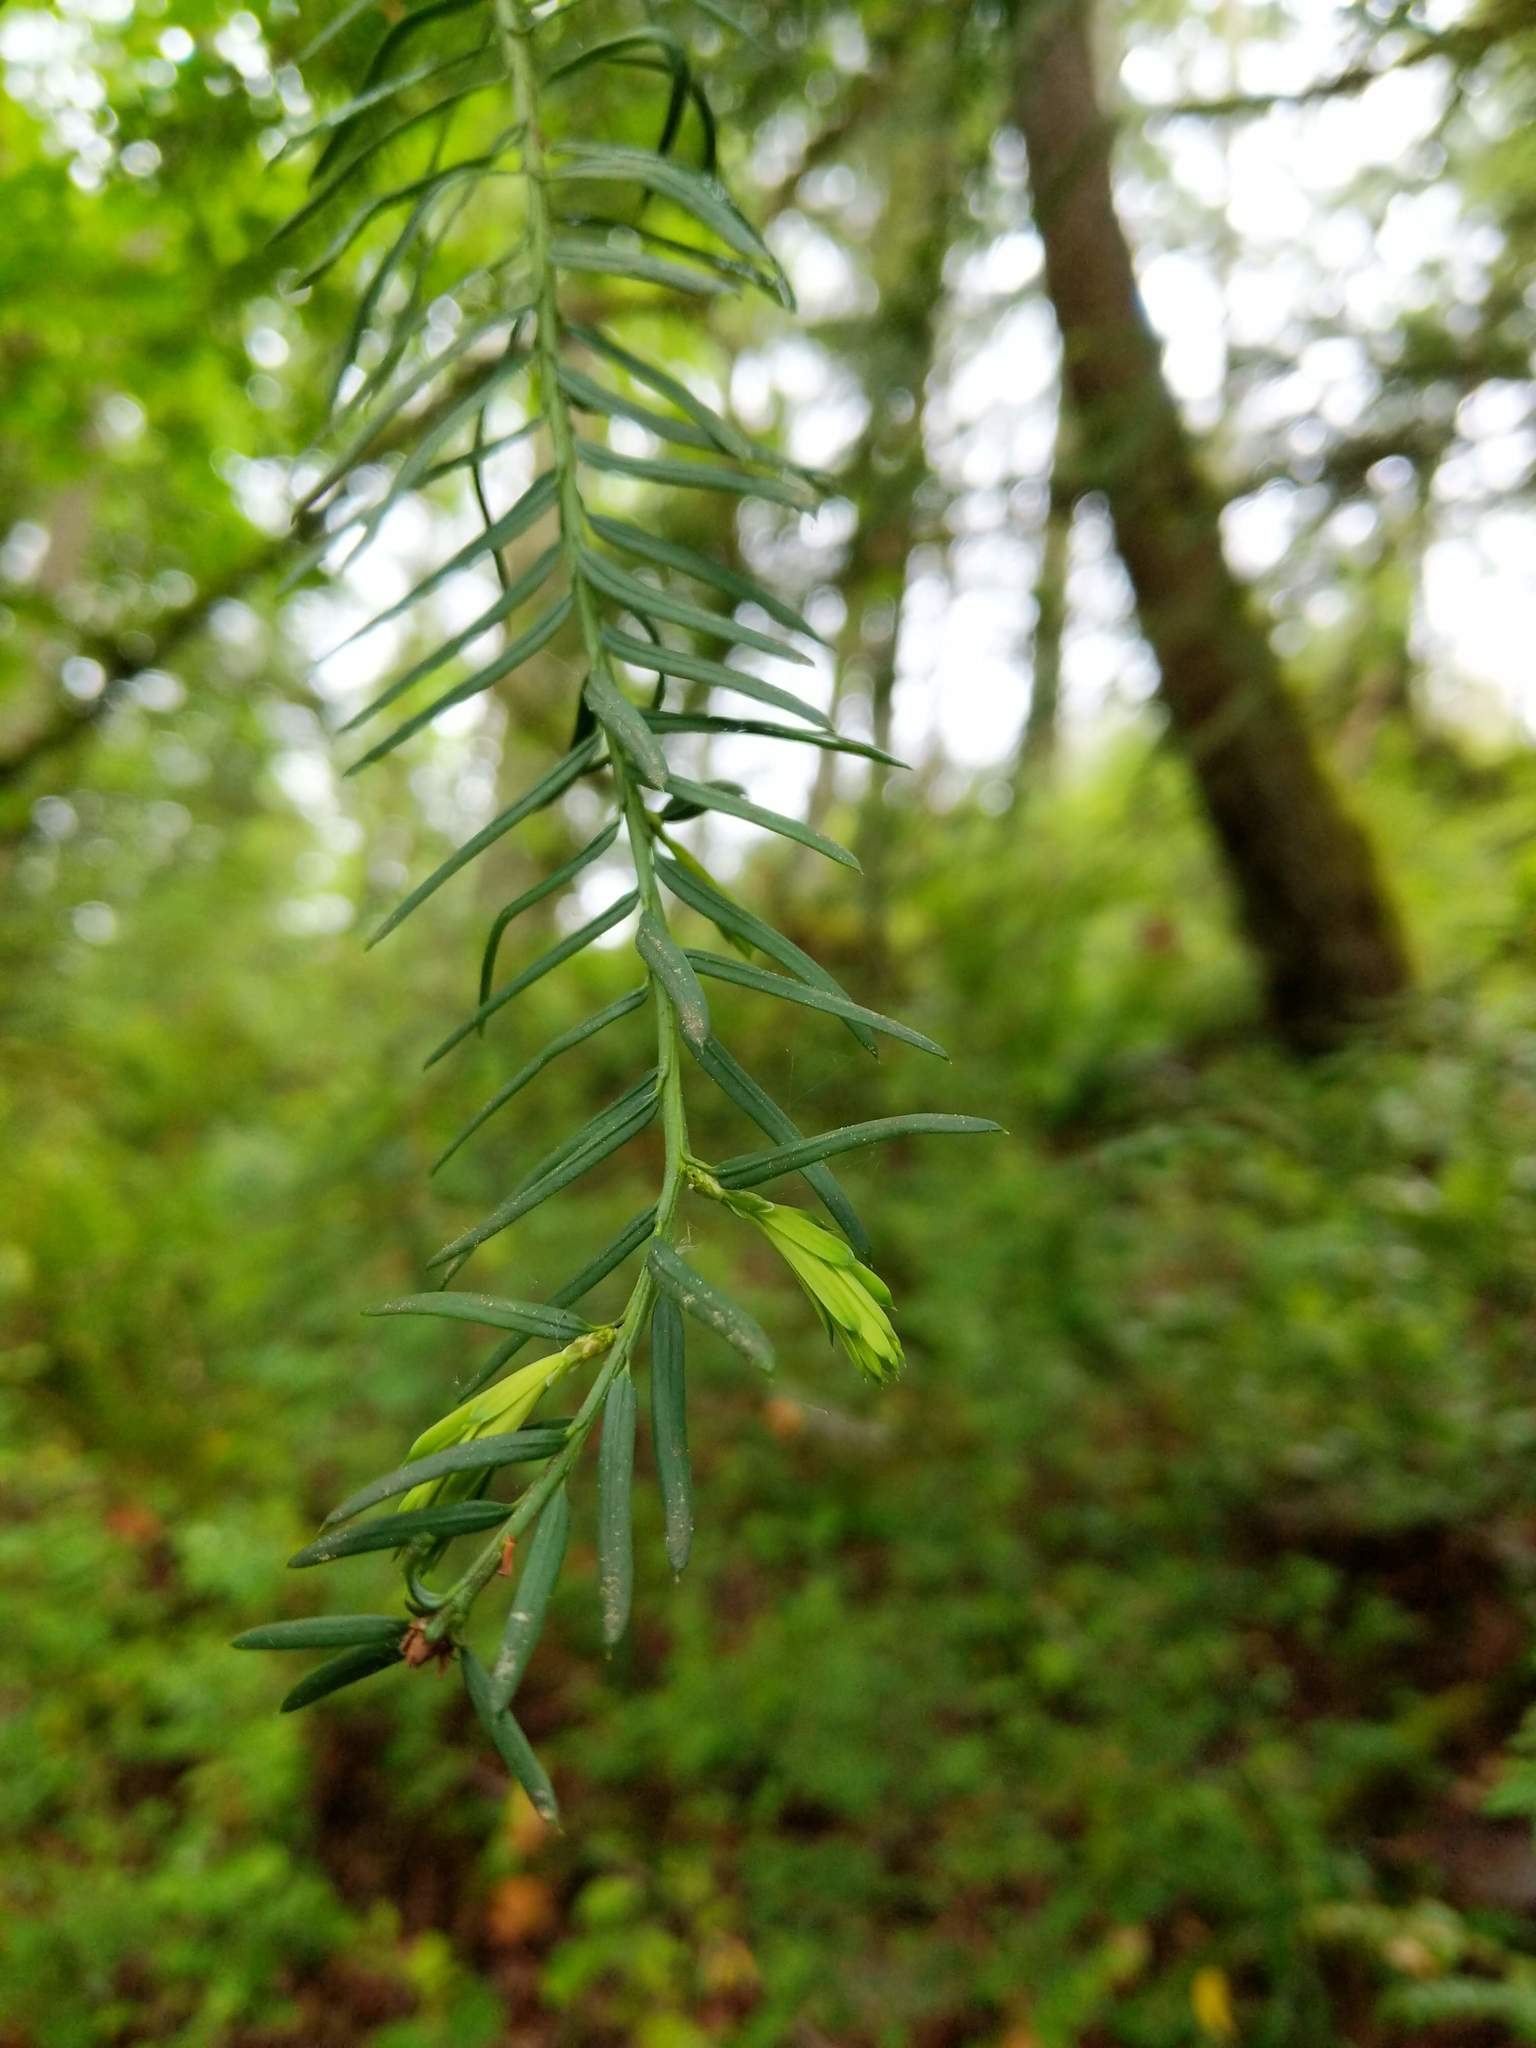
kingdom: Plantae
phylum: Tracheophyta
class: Pinopsida
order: Pinales
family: Taxaceae
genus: Taxus
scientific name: Taxus brevifolia
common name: Pacific yew
